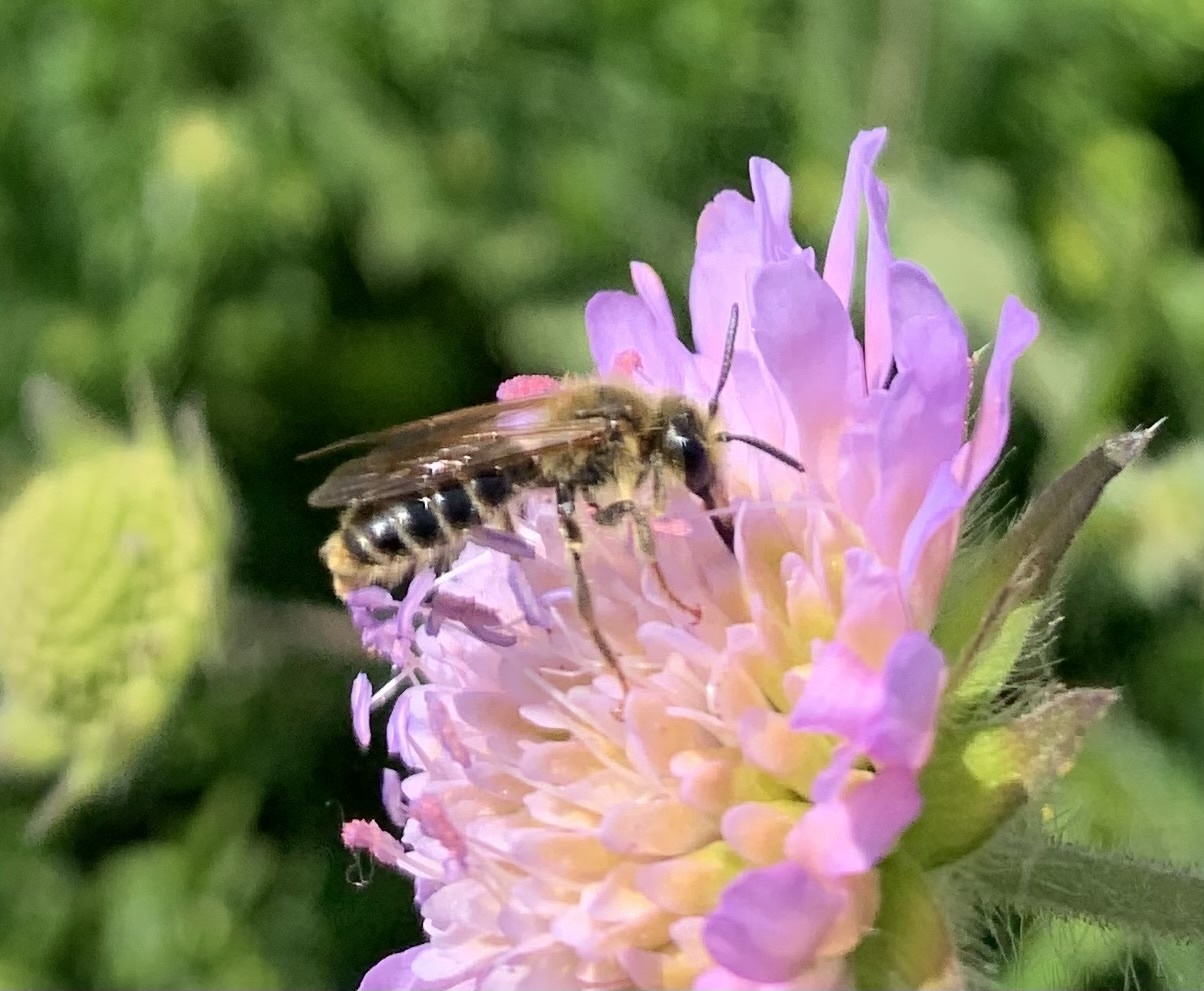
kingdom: Animalia
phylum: Arthropoda
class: Insecta
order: Hymenoptera
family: Andrenidae
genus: Andrena
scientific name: Andrena hattorfiana
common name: Large scabious mining bee
